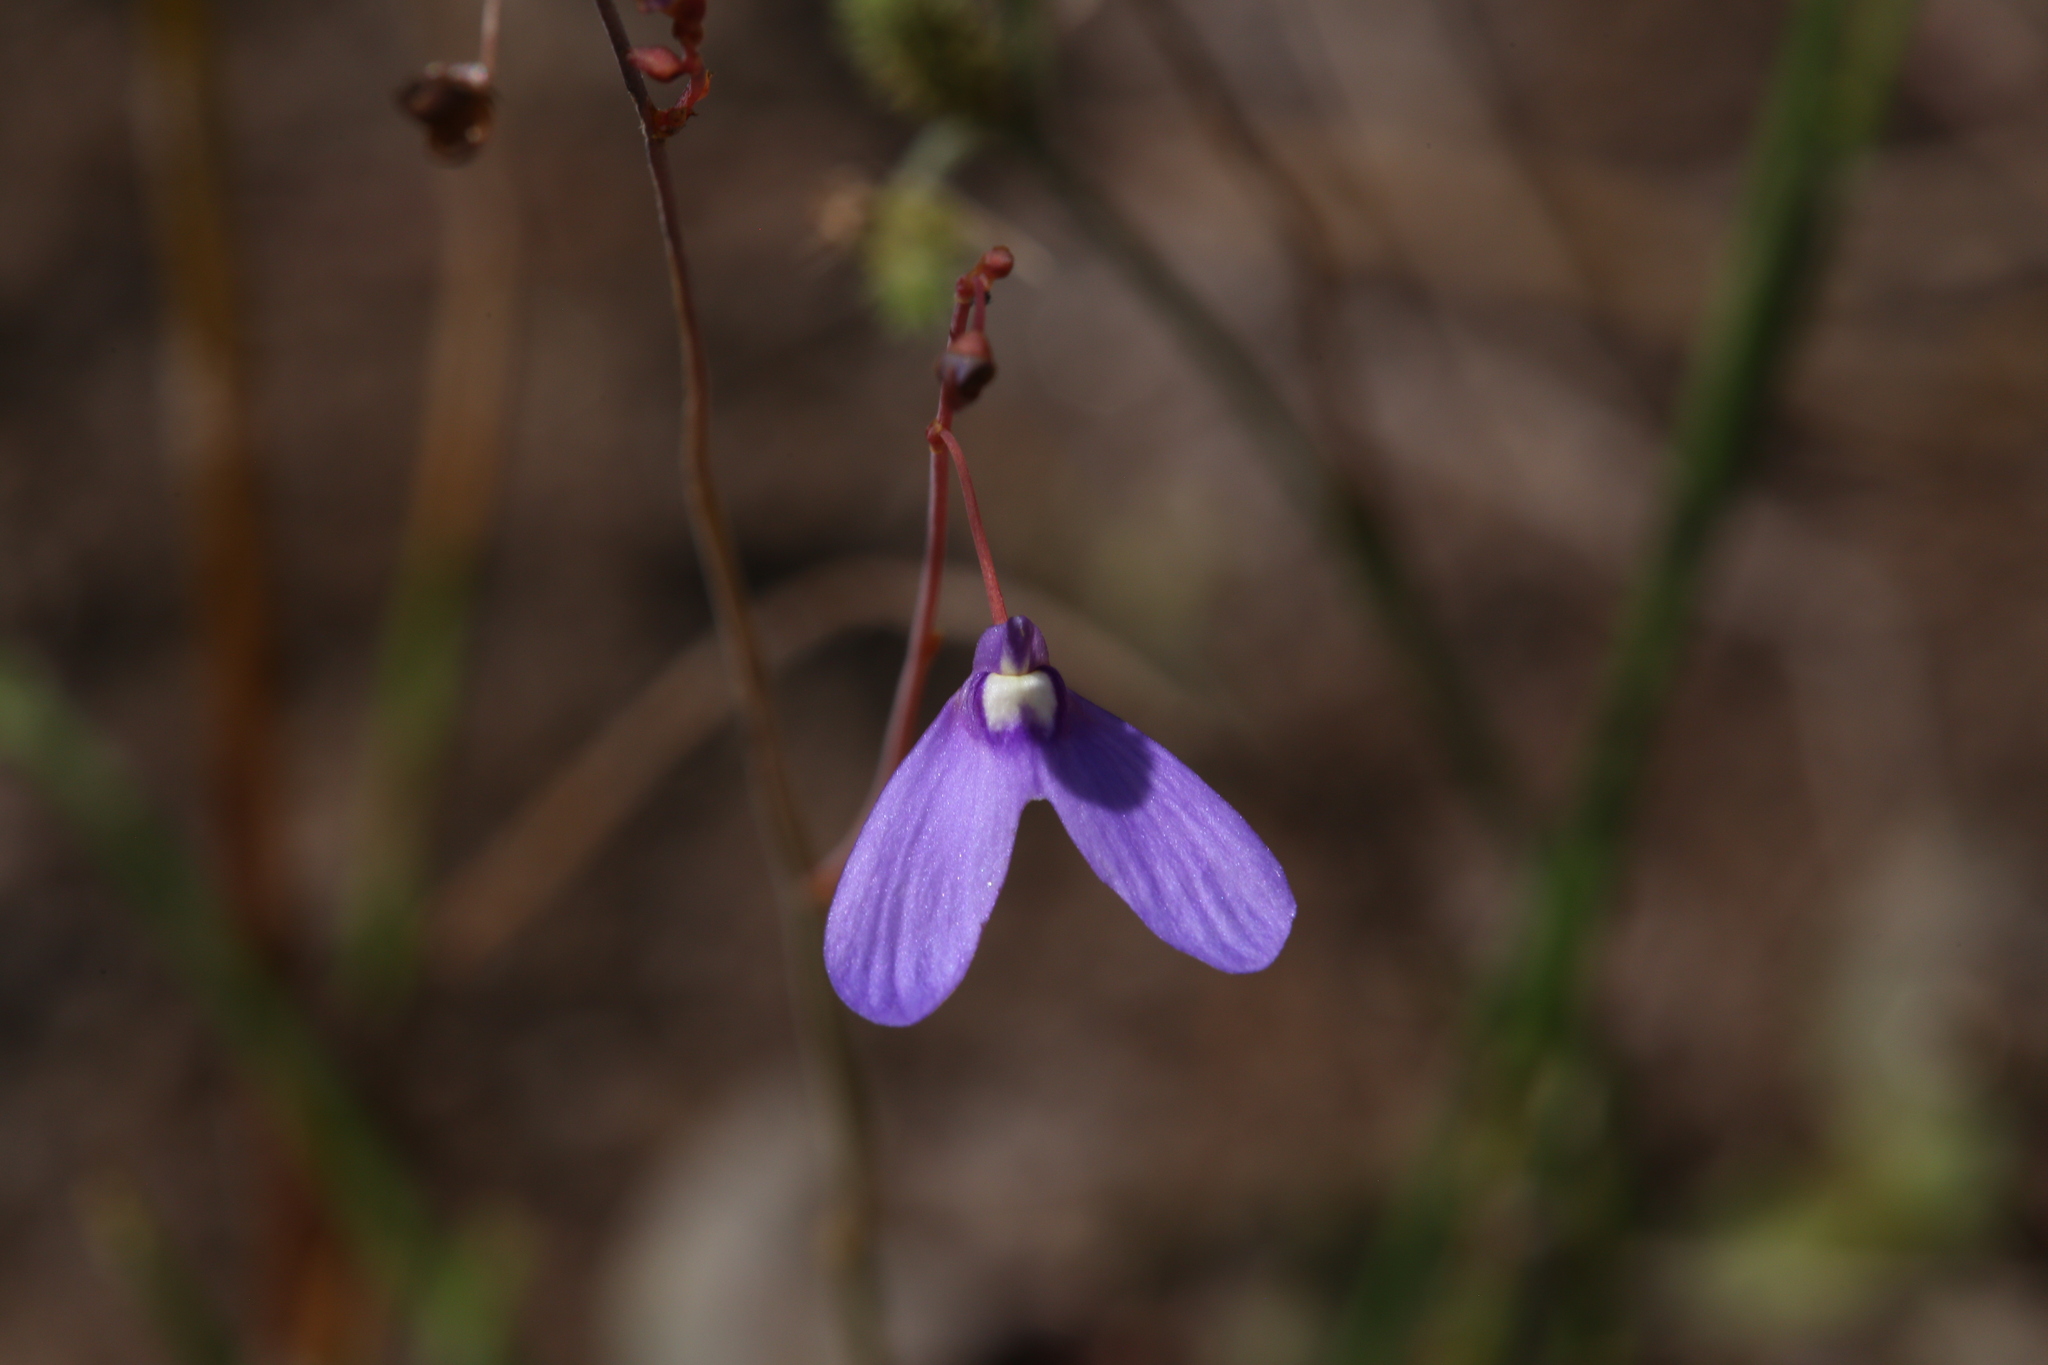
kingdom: Plantae
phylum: Tracheophyta
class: Magnoliopsida
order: Lamiales
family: Lentibulariaceae
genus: Utricularia
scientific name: Utricularia leptoplectra
